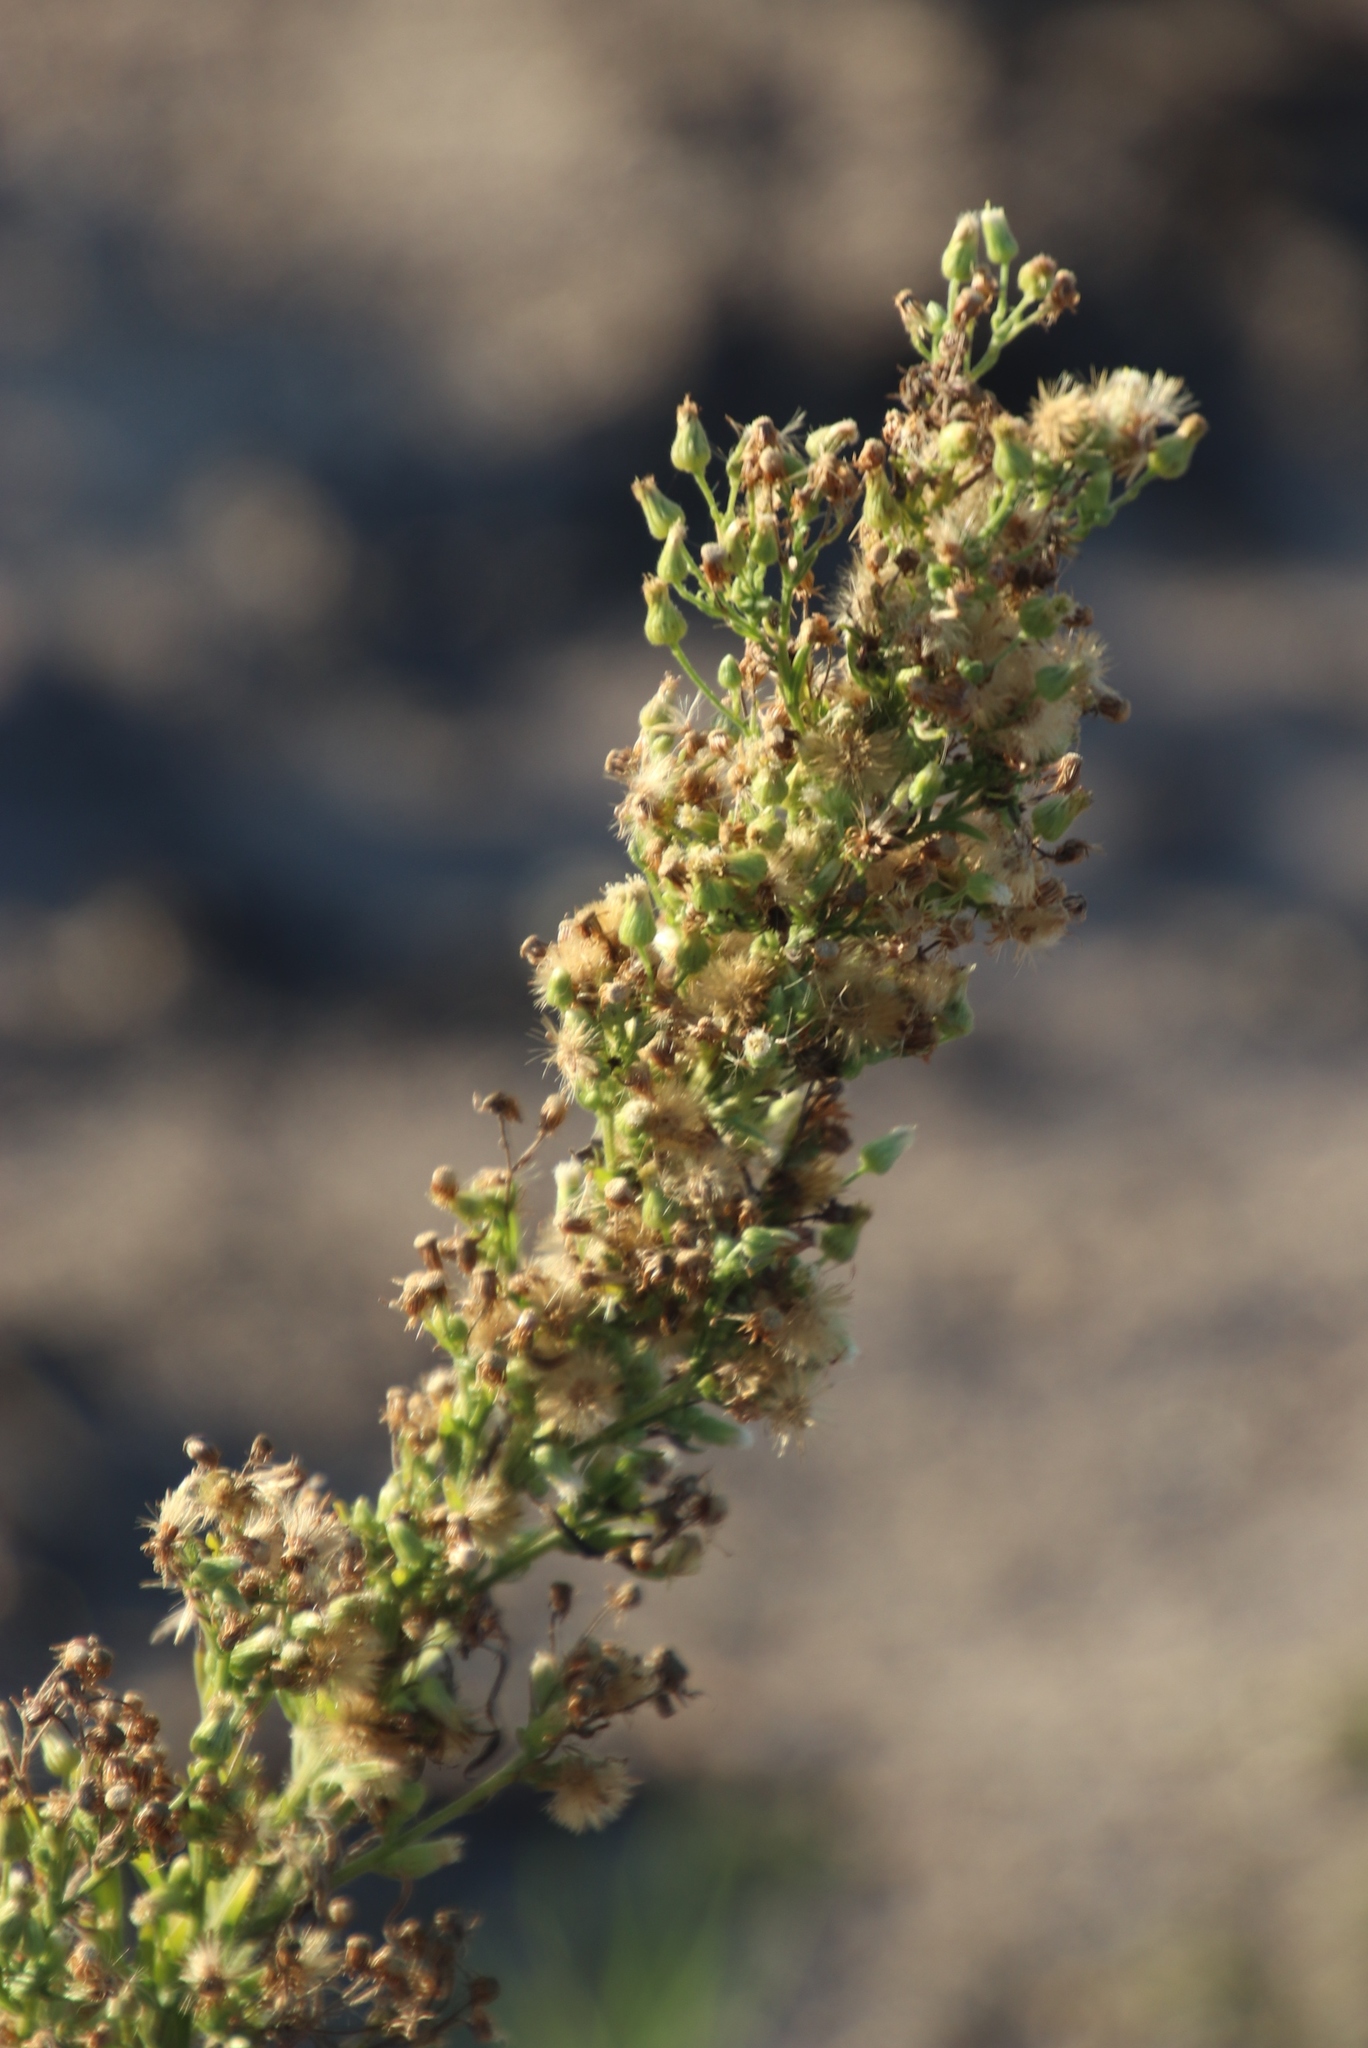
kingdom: Plantae
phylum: Tracheophyta
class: Magnoliopsida
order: Asterales
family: Asteraceae
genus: Erigeron
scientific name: Erigeron sumatrensis
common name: Daisy
